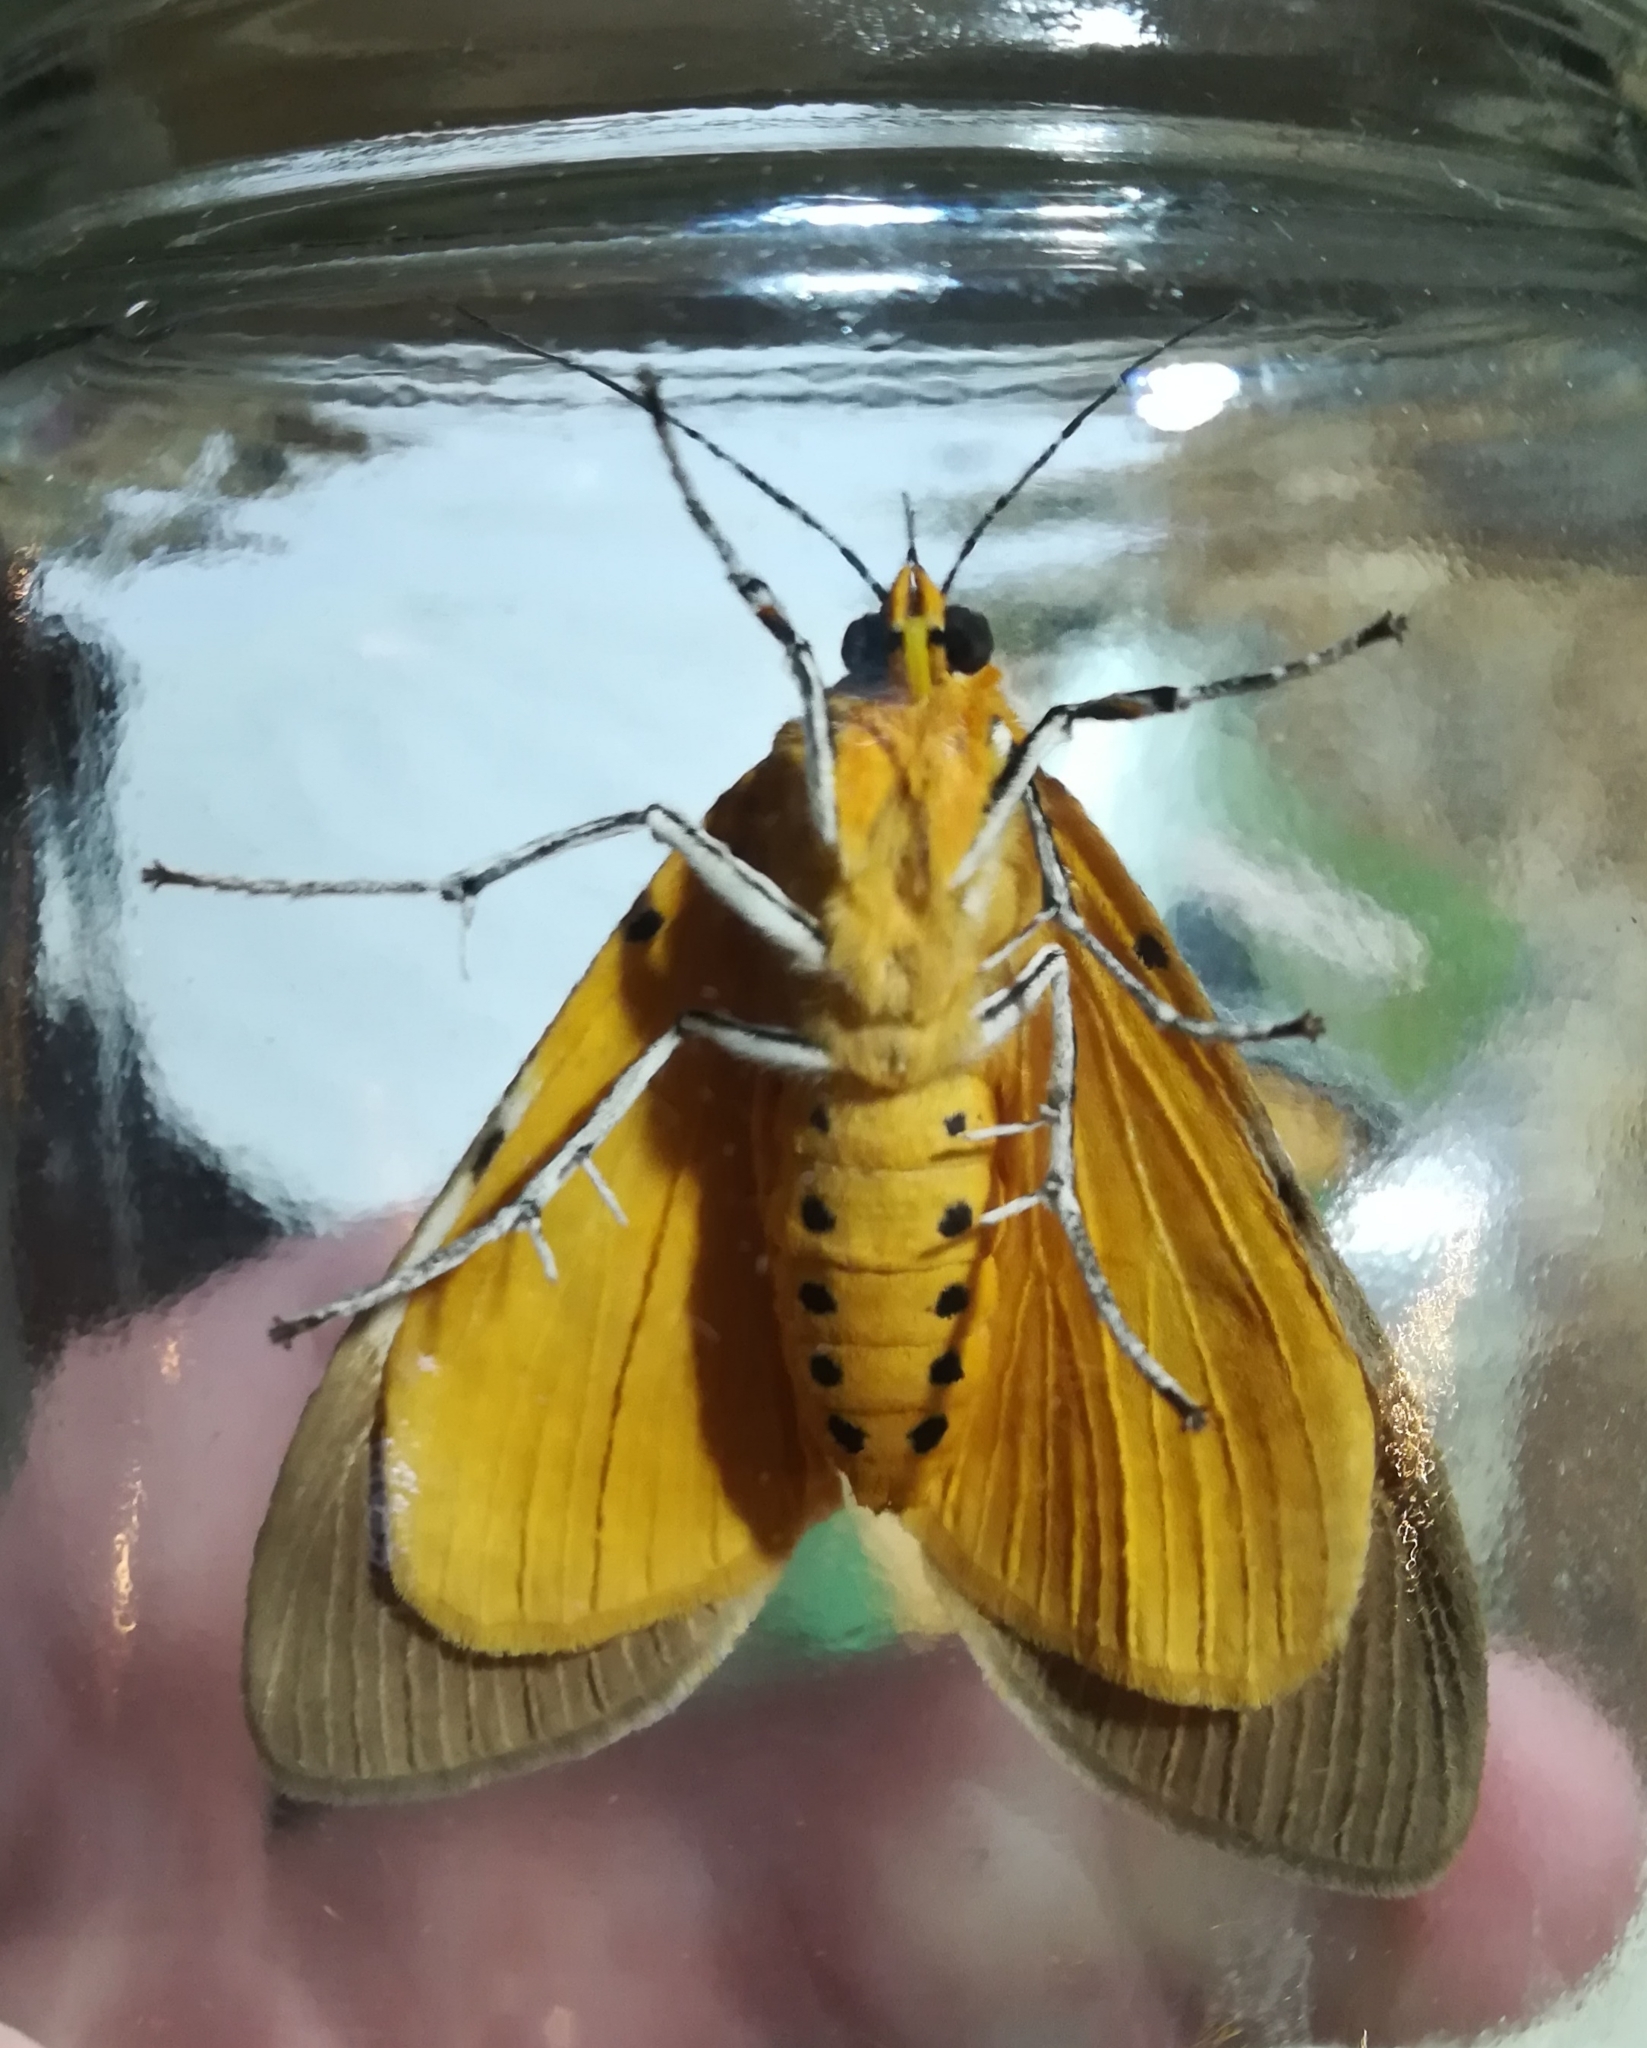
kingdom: Animalia
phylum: Arthropoda
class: Insecta
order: Lepidoptera
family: Erebidae
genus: Asota
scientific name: Asota speciosa
